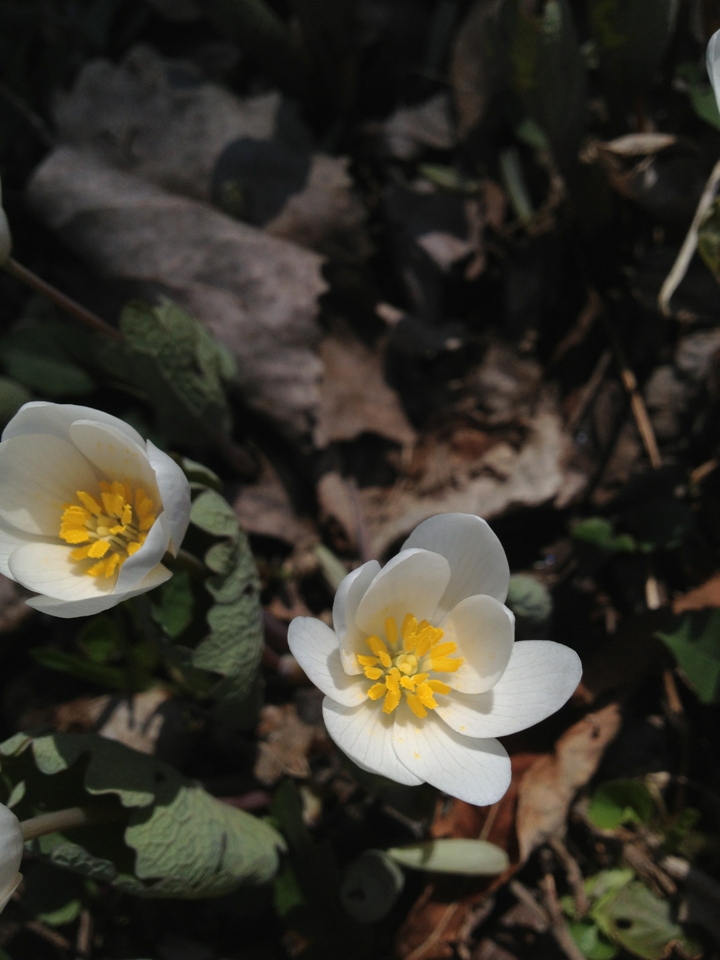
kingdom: Plantae
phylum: Tracheophyta
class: Magnoliopsida
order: Ranunculales
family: Papaveraceae
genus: Sanguinaria
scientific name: Sanguinaria canadensis
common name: Bloodroot
